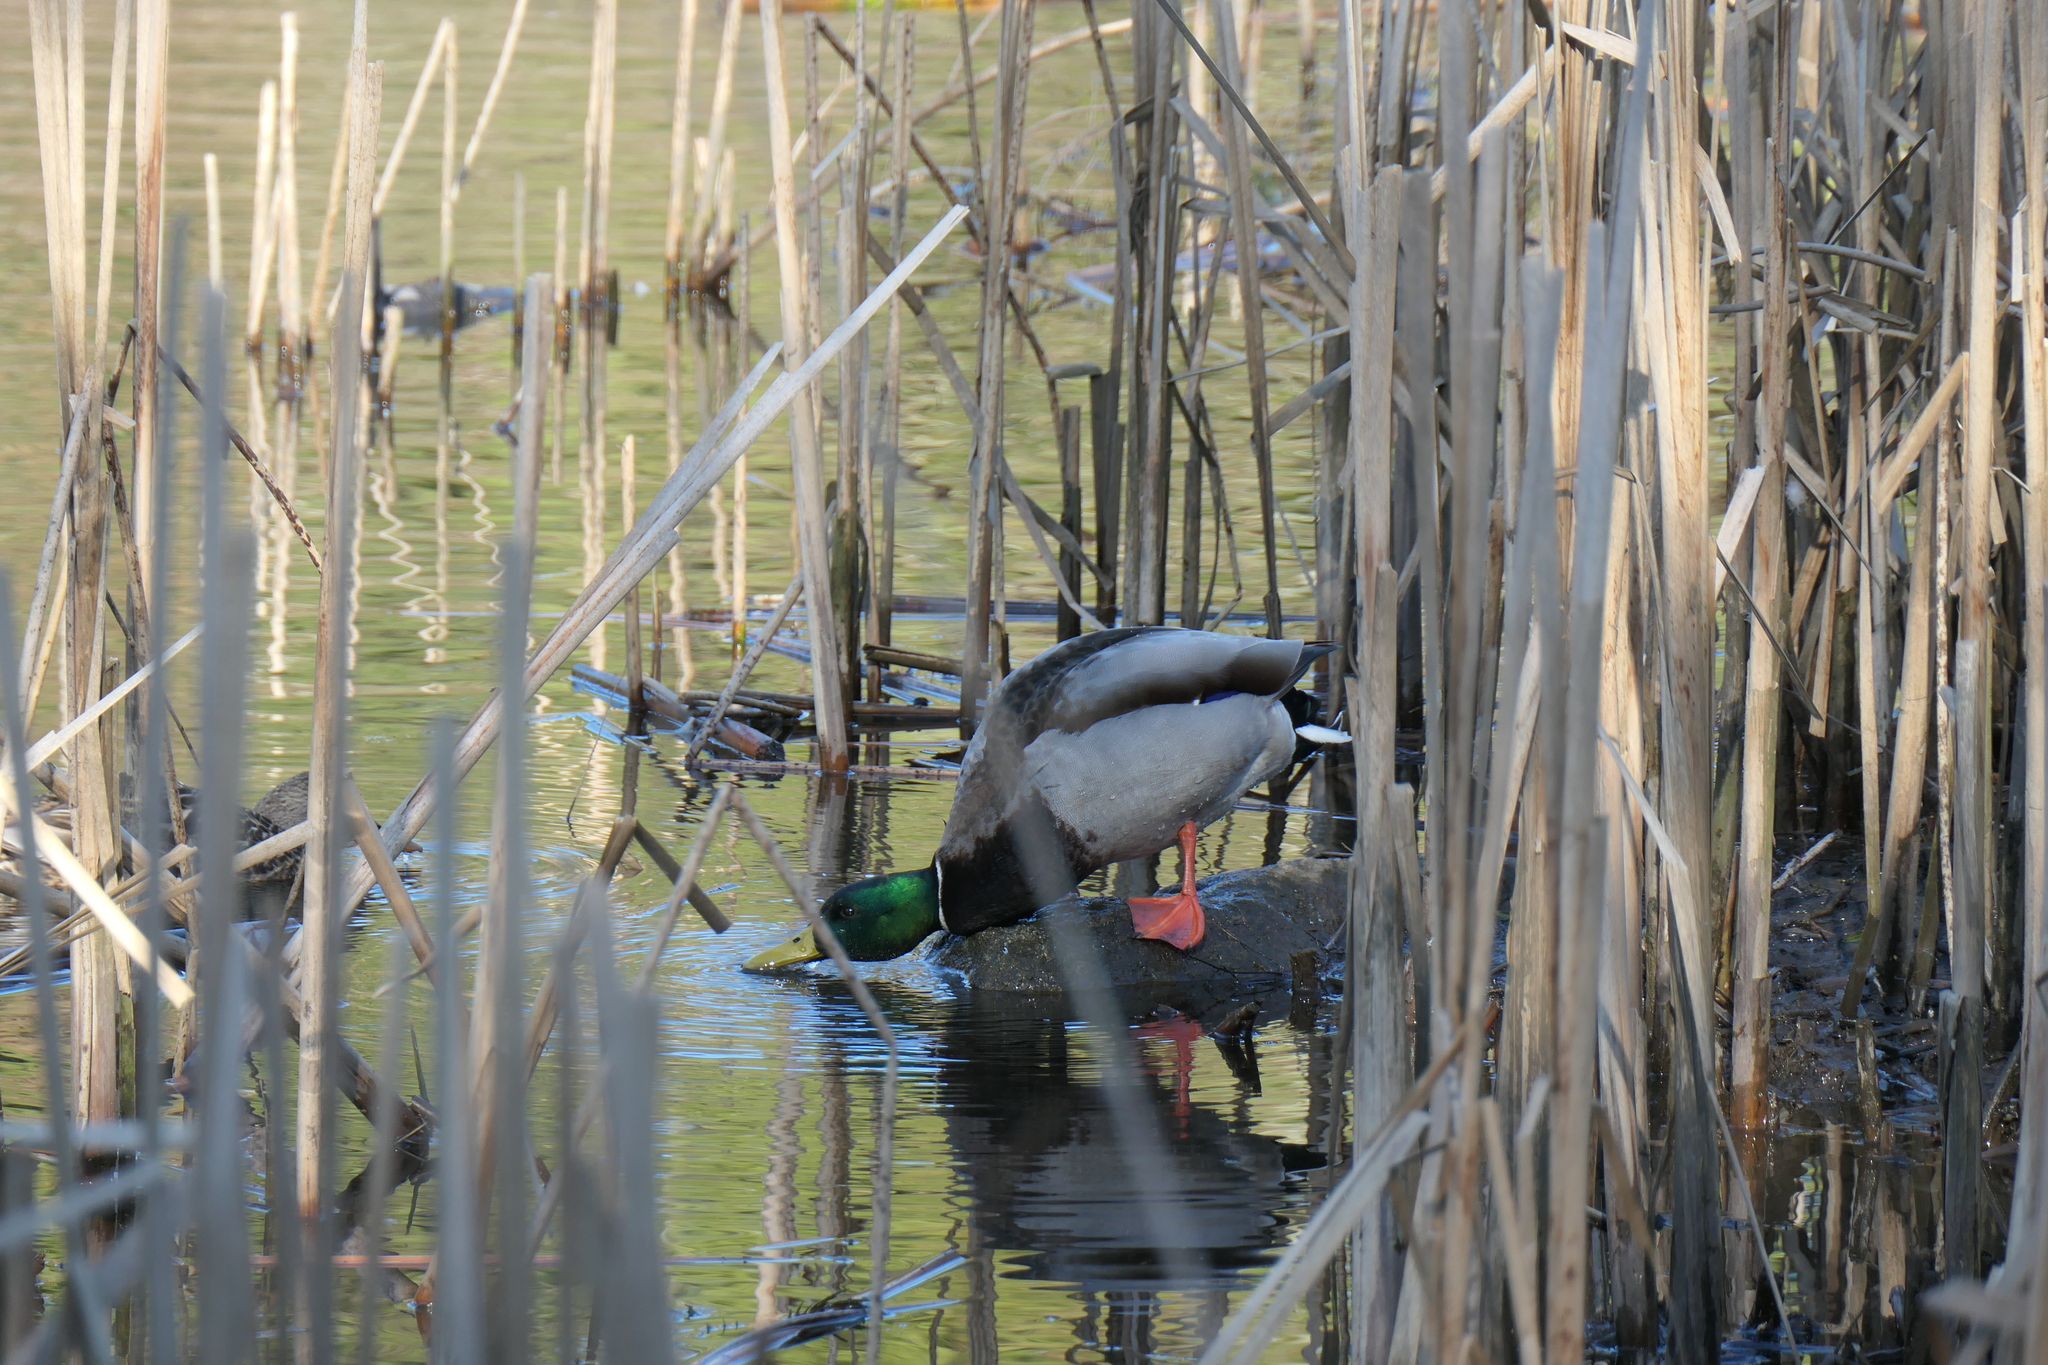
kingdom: Animalia
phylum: Chordata
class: Aves
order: Anseriformes
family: Anatidae
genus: Anas
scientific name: Anas platyrhynchos
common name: Mallard
